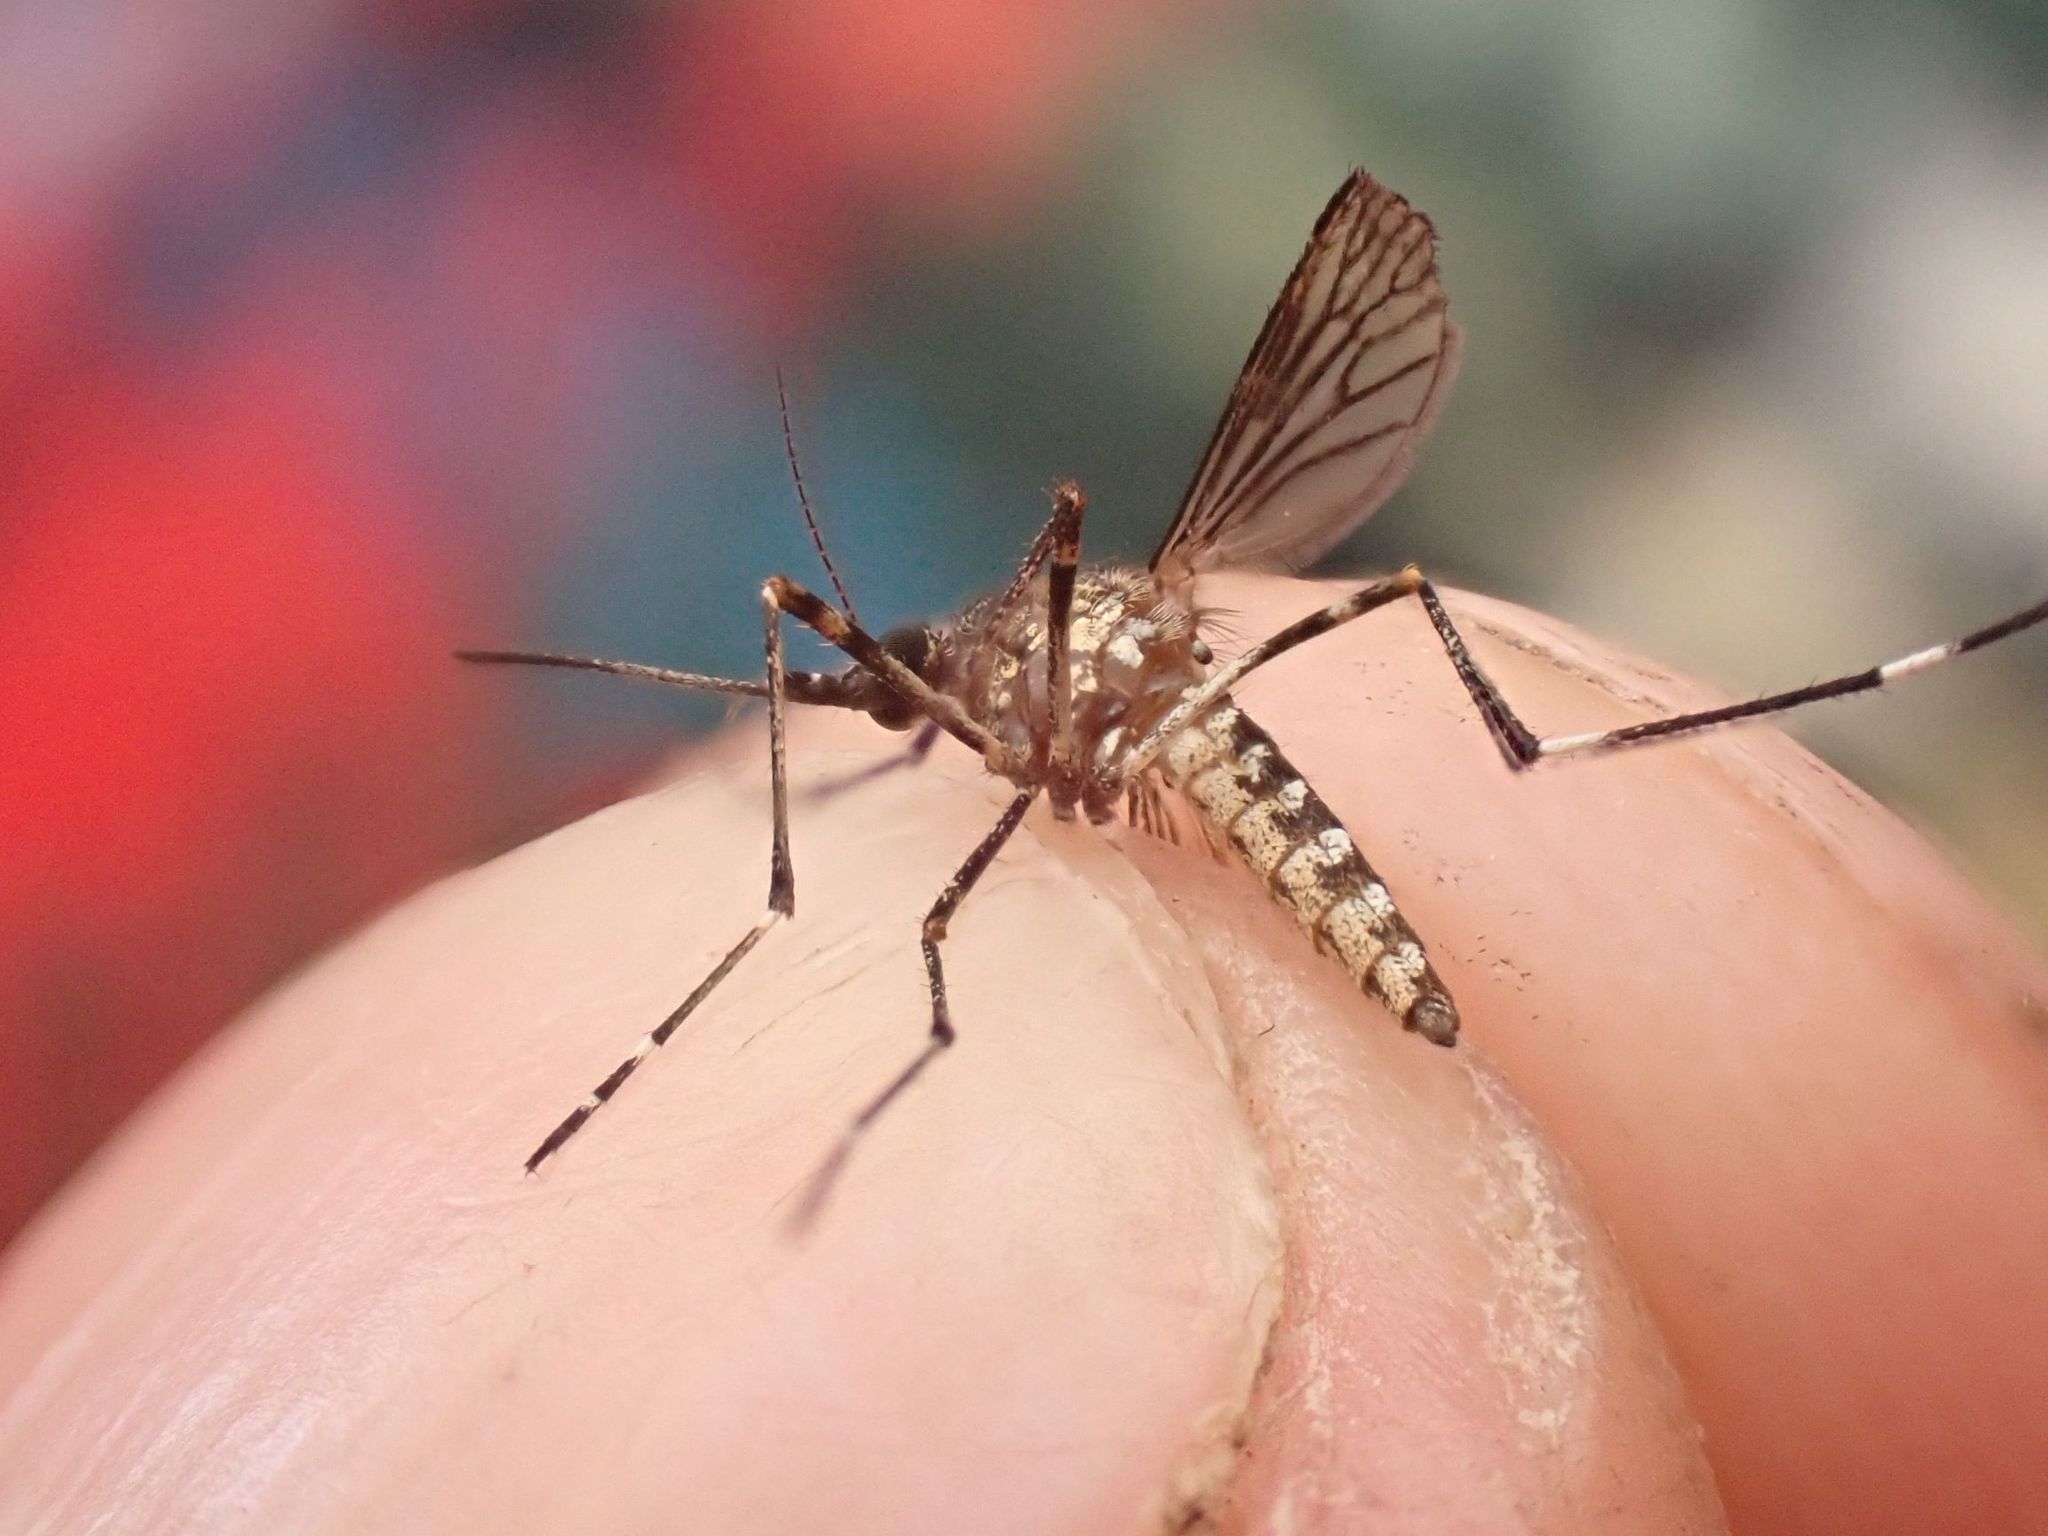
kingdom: Animalia
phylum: Arthropoda
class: Insecta
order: Diptera
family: Culicidae
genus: Aedes
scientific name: Aedes alboannulatus
